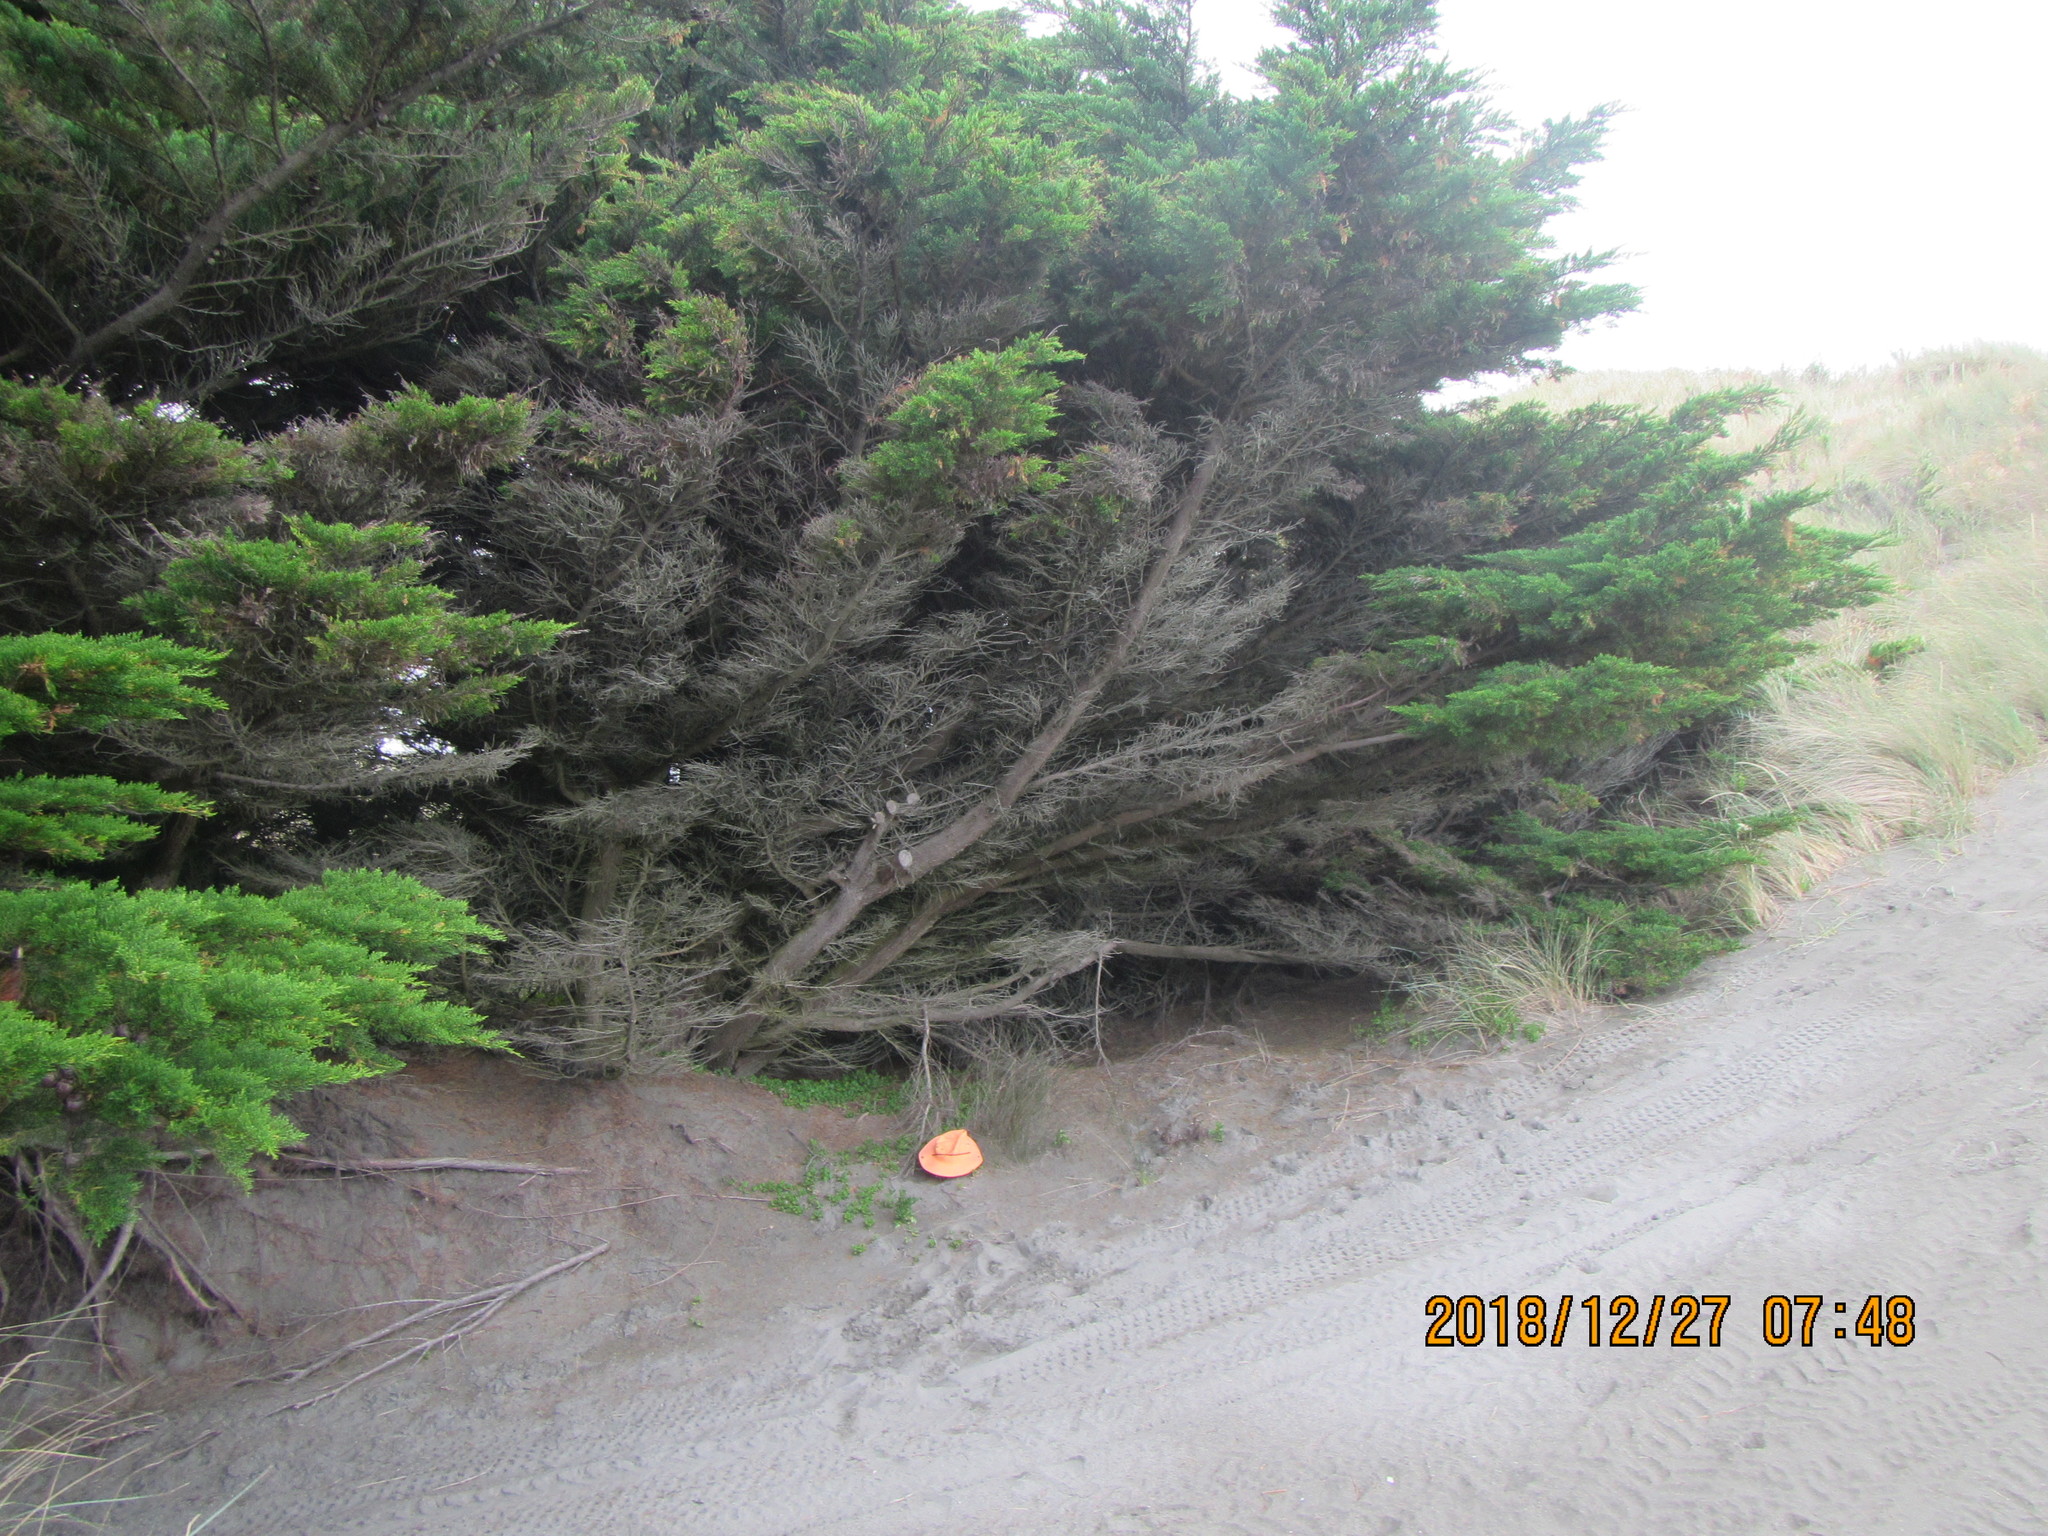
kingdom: Plantae
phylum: Tracheophyta
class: Pinopsida
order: Pinales
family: Cupressaceae
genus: Cupressus
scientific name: Cupressus macrocarpa
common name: Monterey cypress
